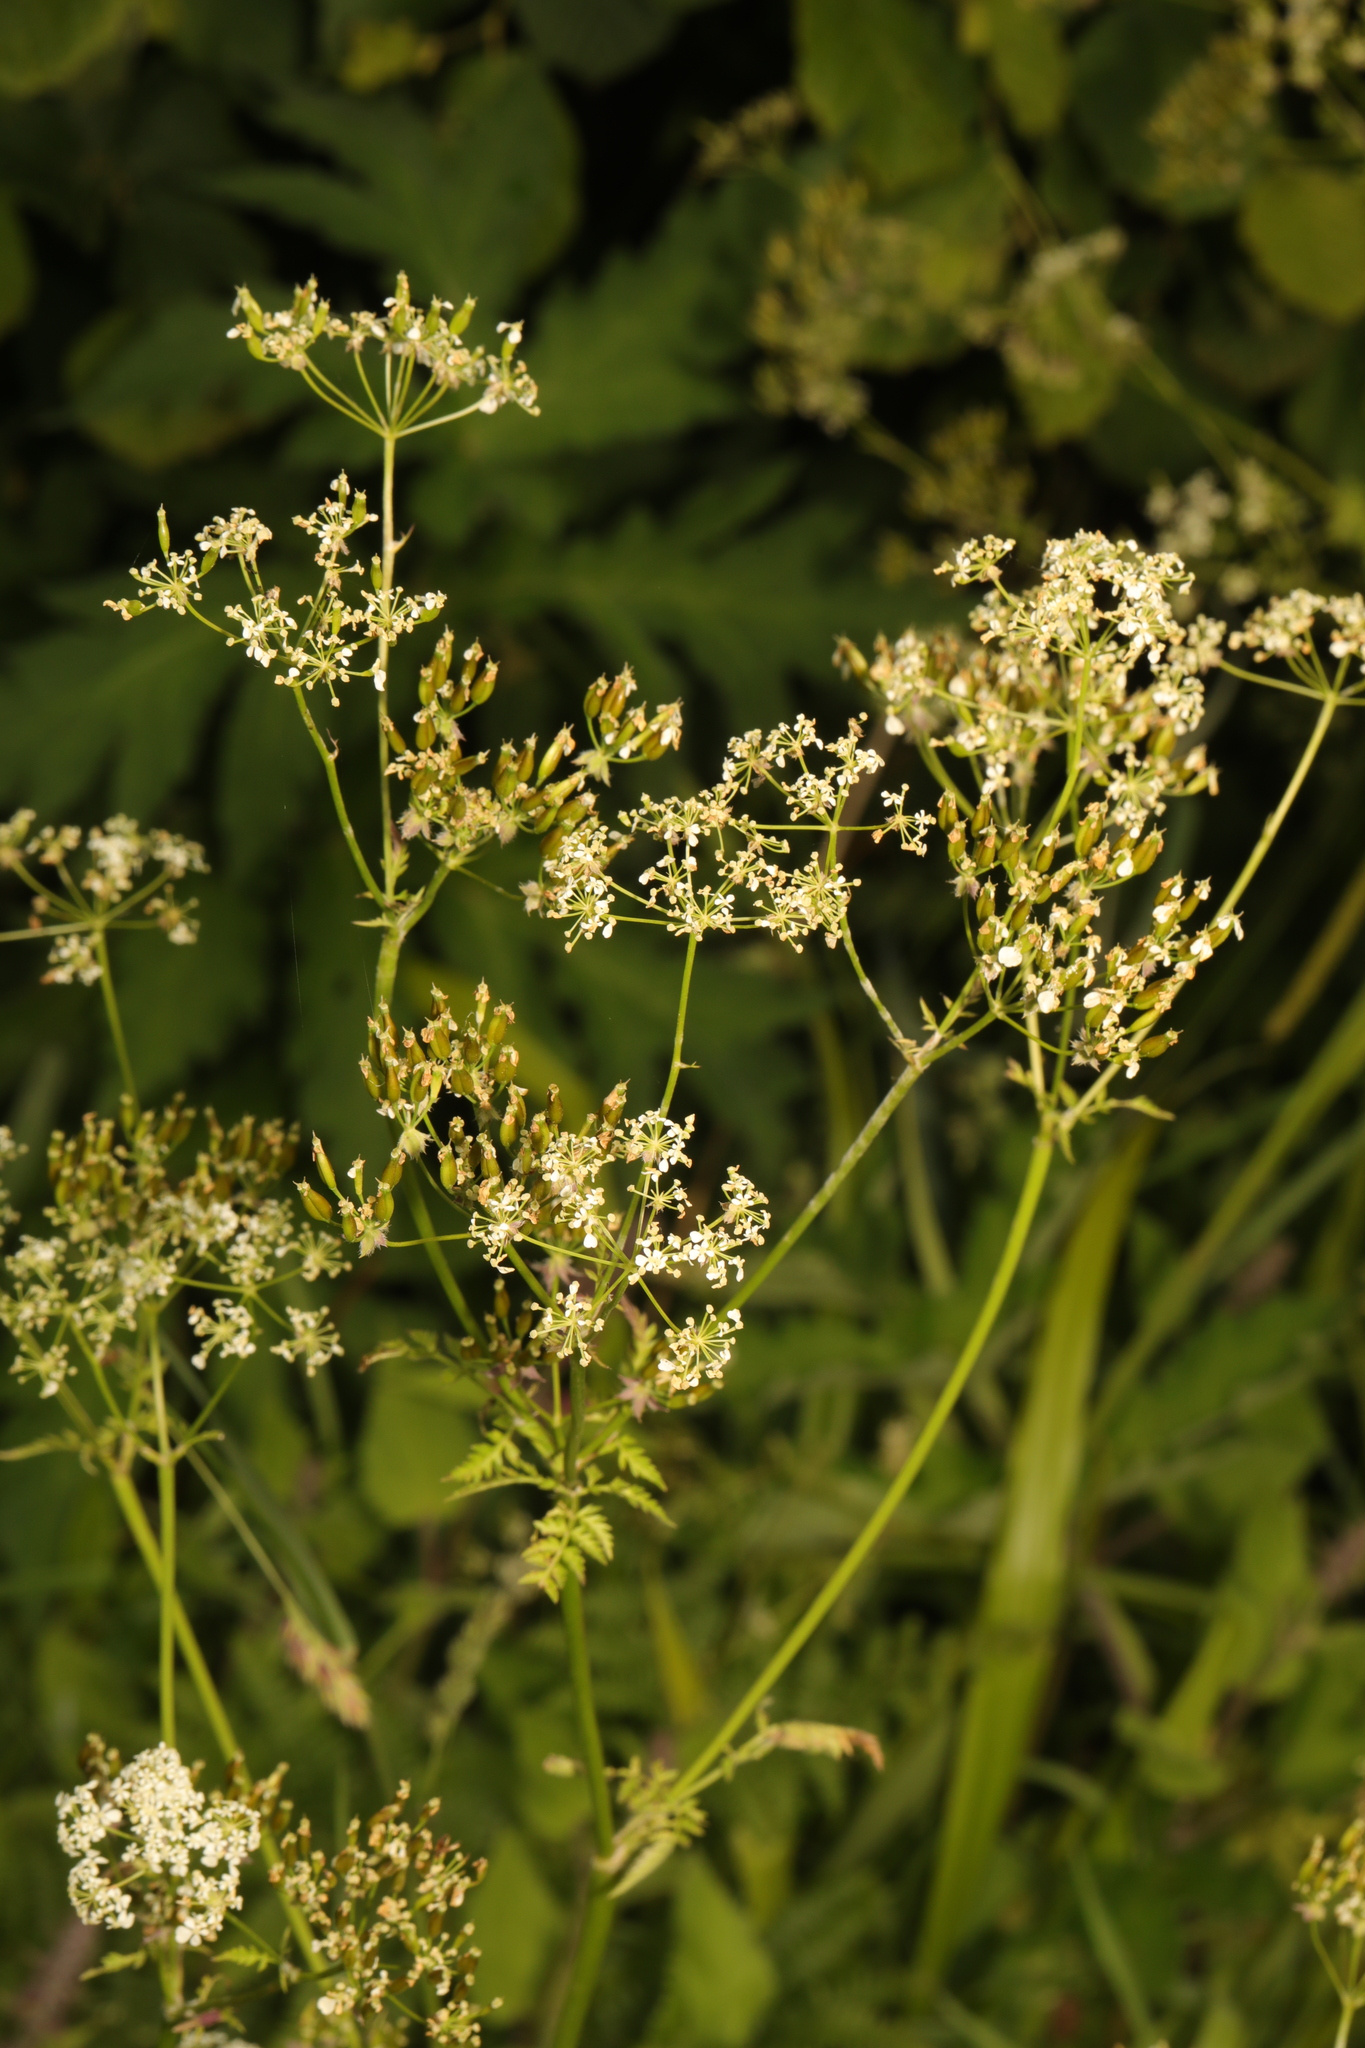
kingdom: Plantae
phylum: Tracheophyta
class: Magnoliopsida
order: Apiales
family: Apiaceae
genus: Anthriscus
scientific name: Anthriscus sylvestris
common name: Cow parsley
